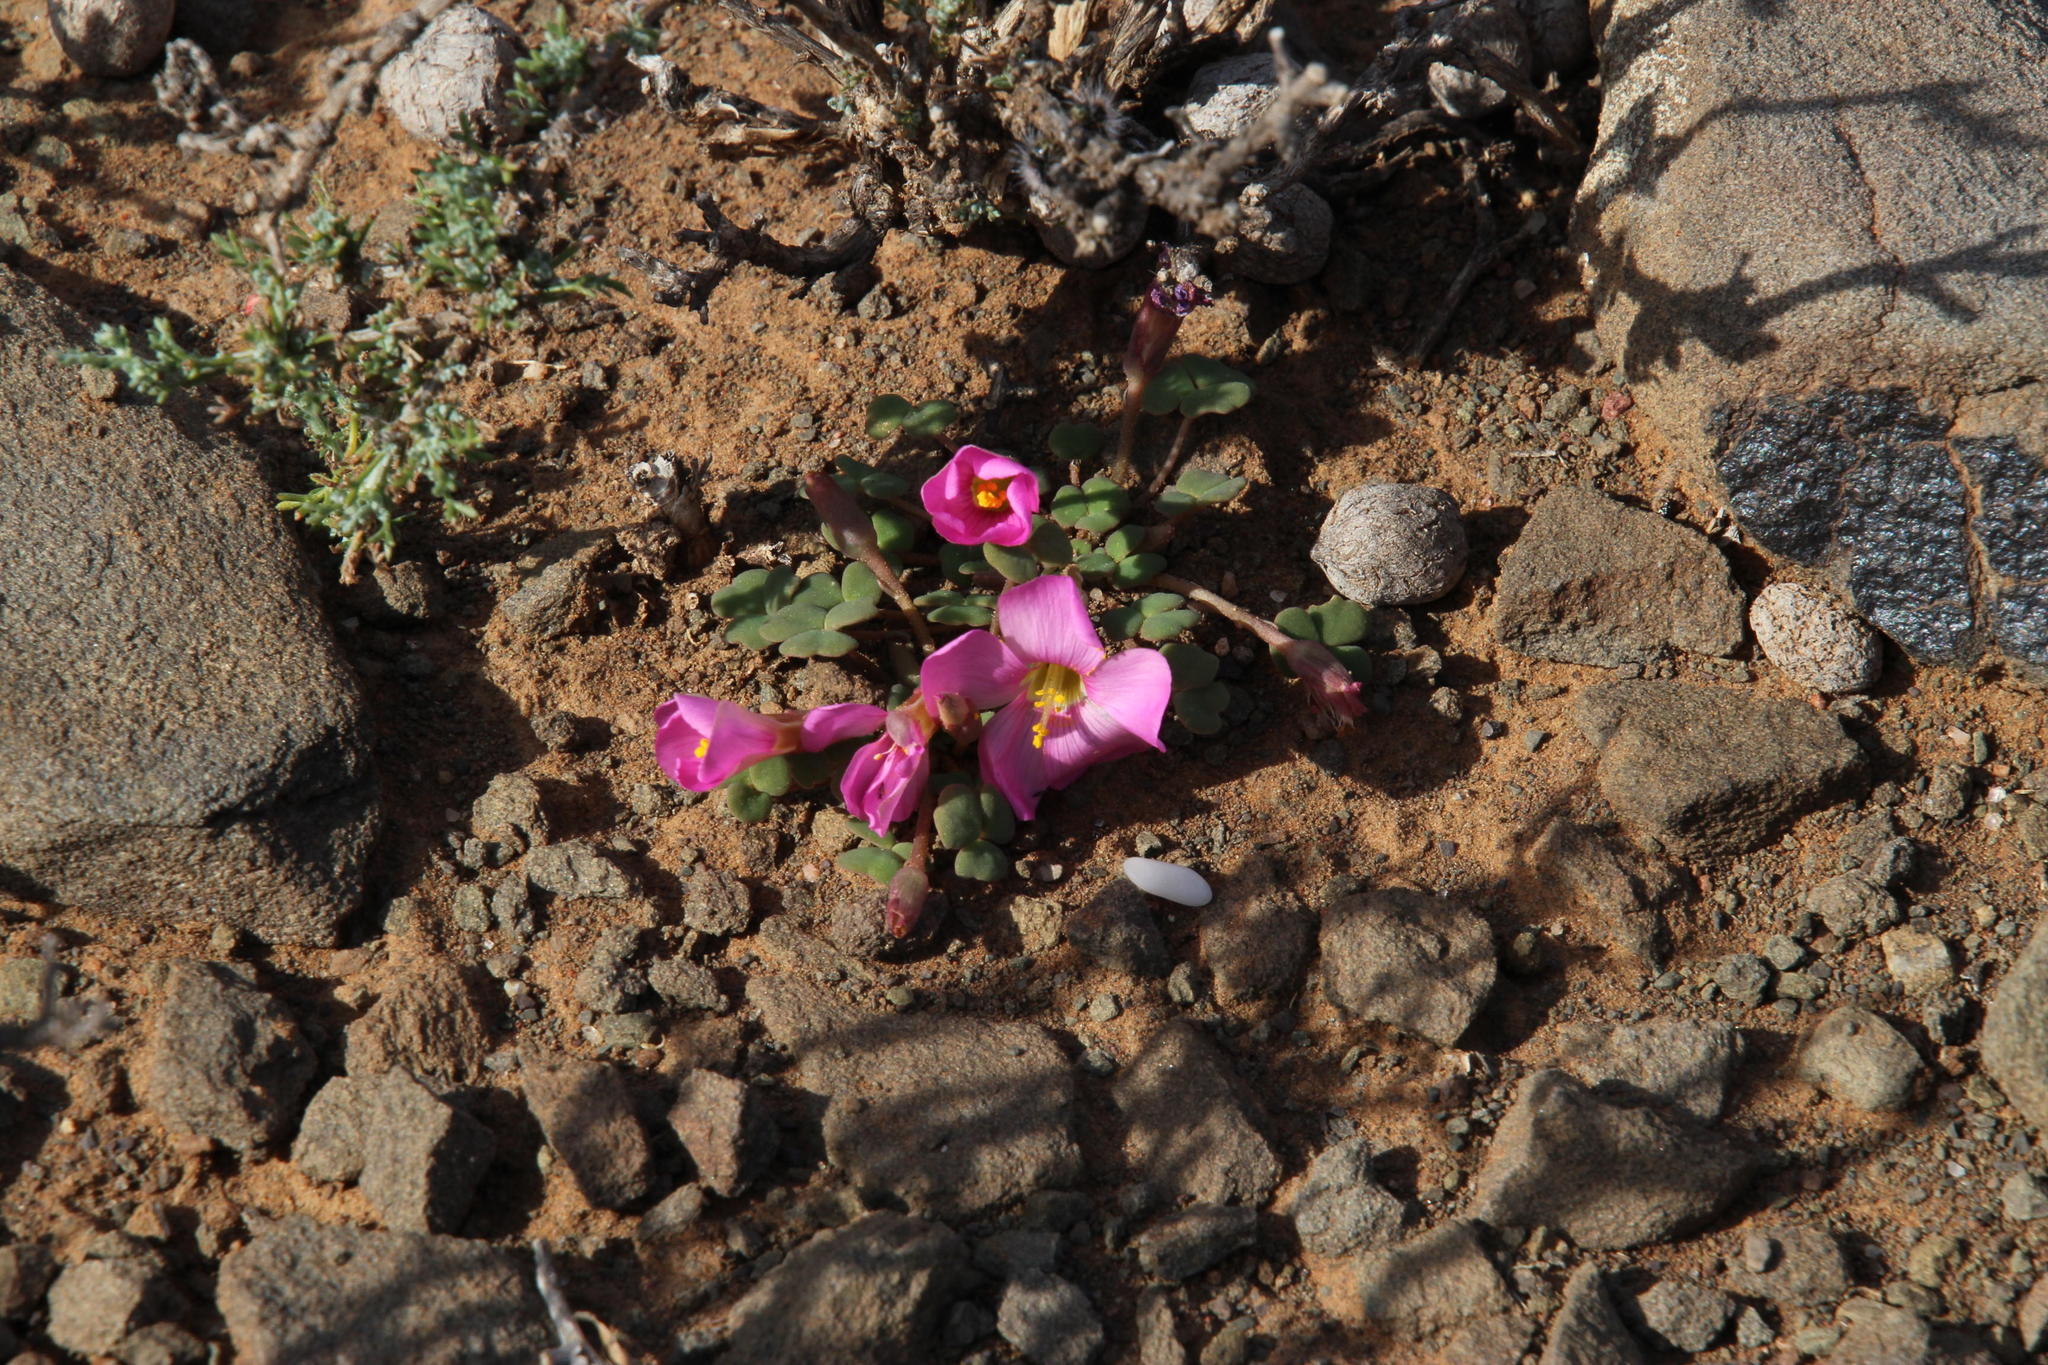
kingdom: Plantae
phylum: Tracheophyta
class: Magnoliopsida
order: Oxalidales
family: Oxalidaceae
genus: Oxalis
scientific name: Oxalis fergusoniae
